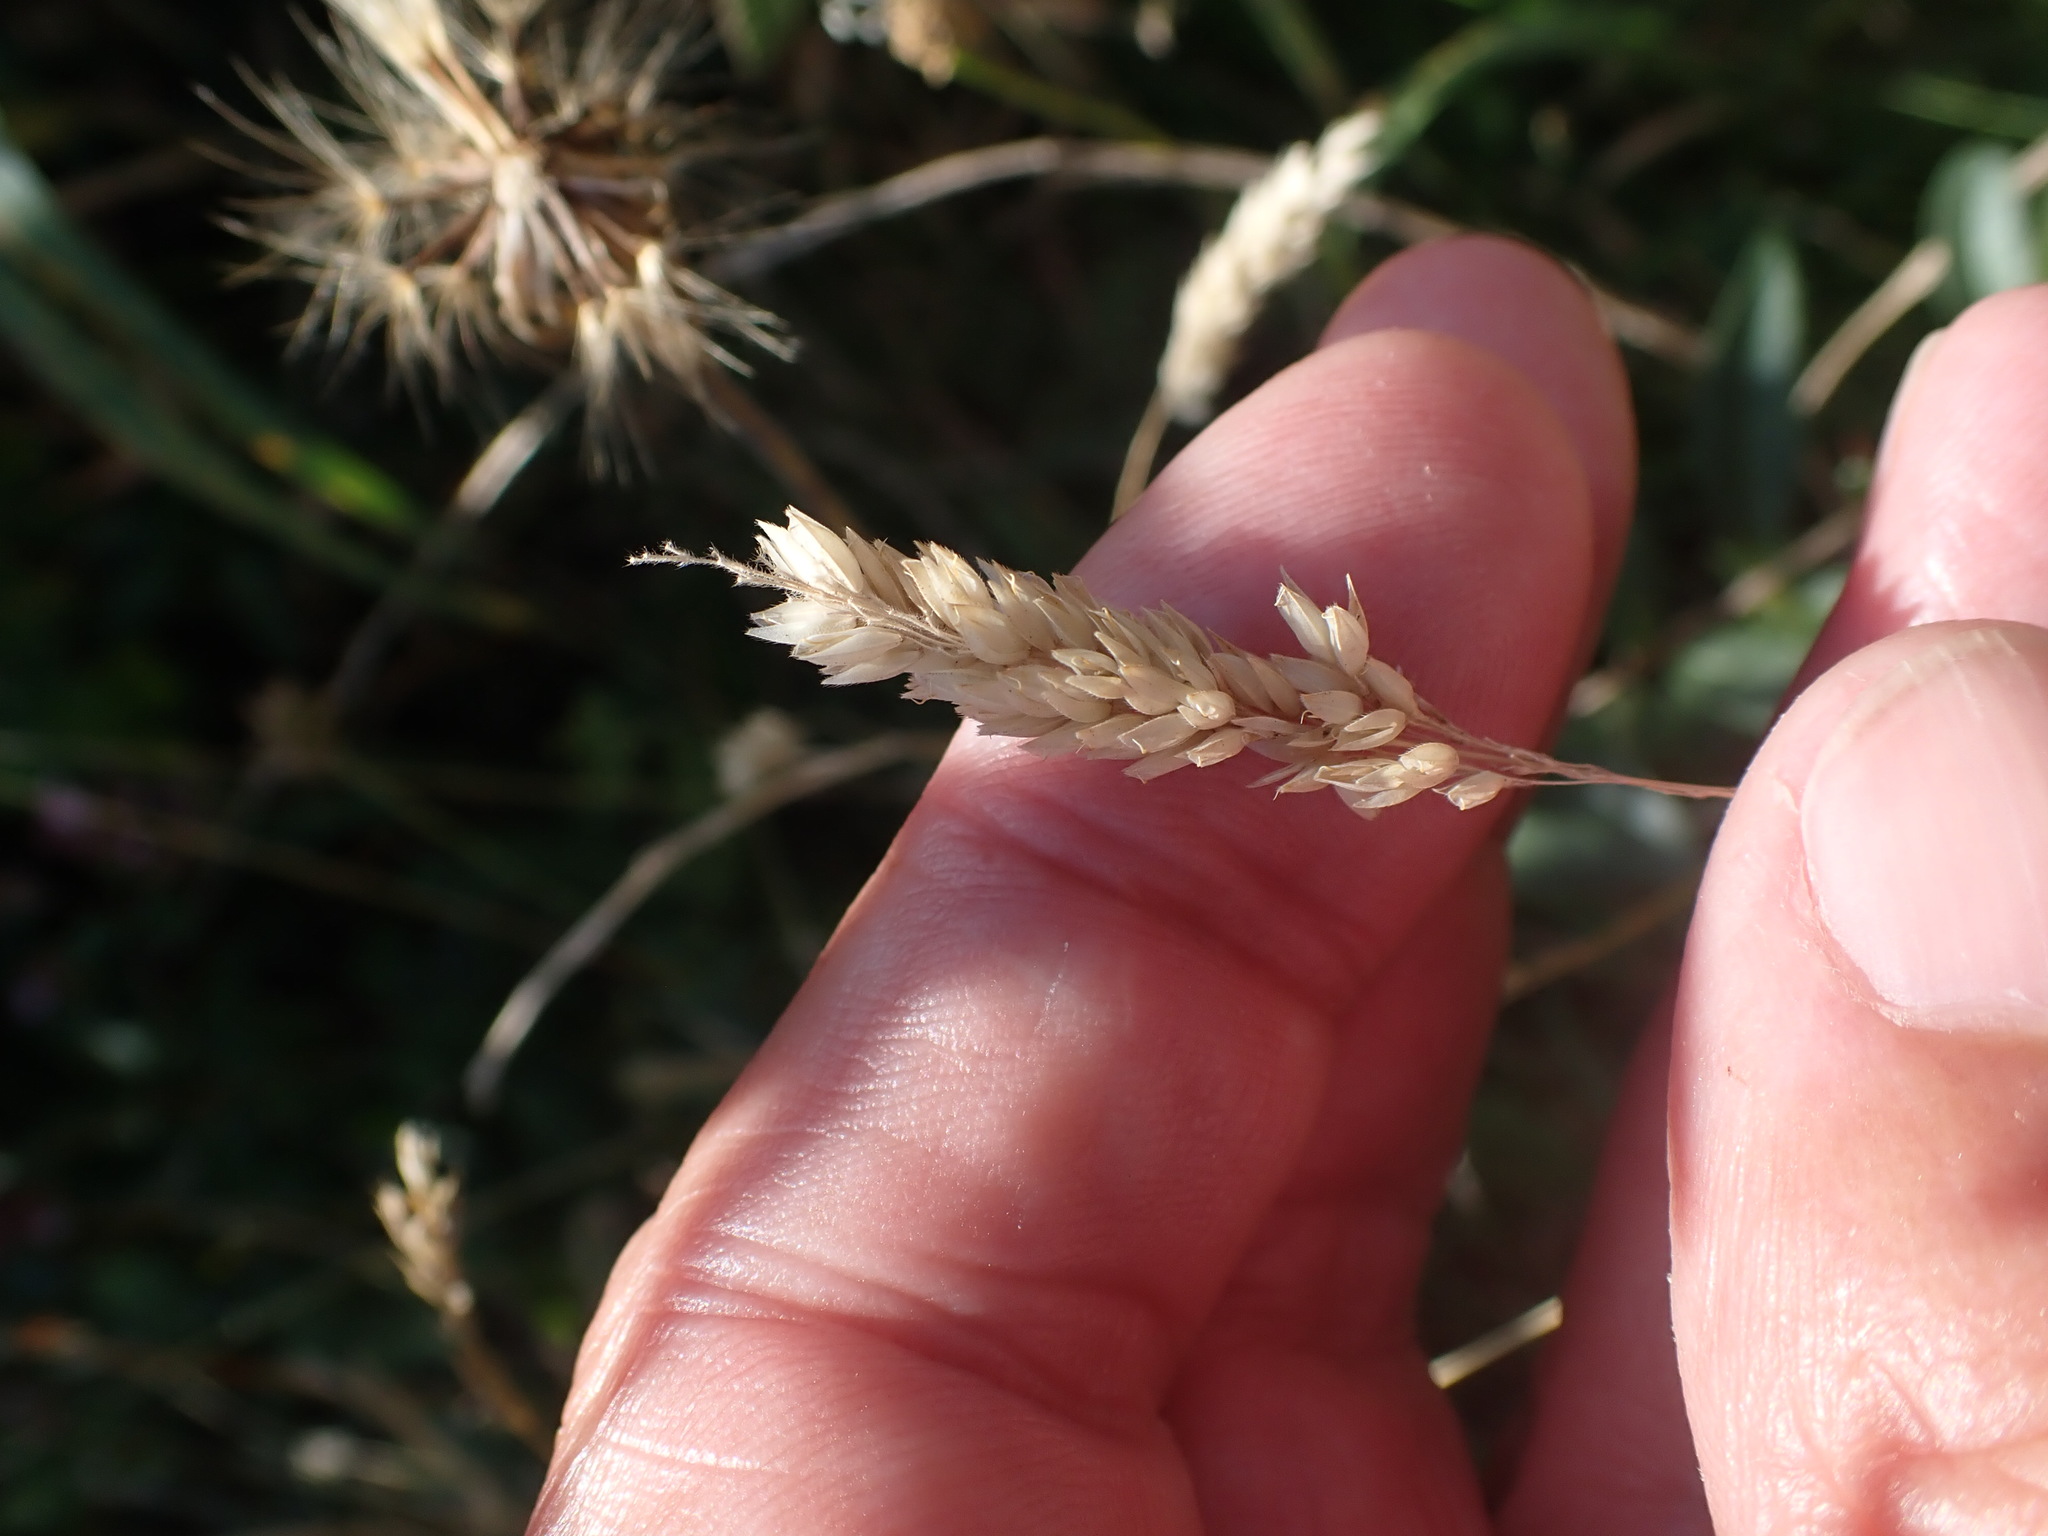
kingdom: Plantae
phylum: Tracheophyta
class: Liliopsida
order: Poales
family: Poaceae
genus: Holcus
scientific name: Holcus lanatus
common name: Yorkshire-fog
